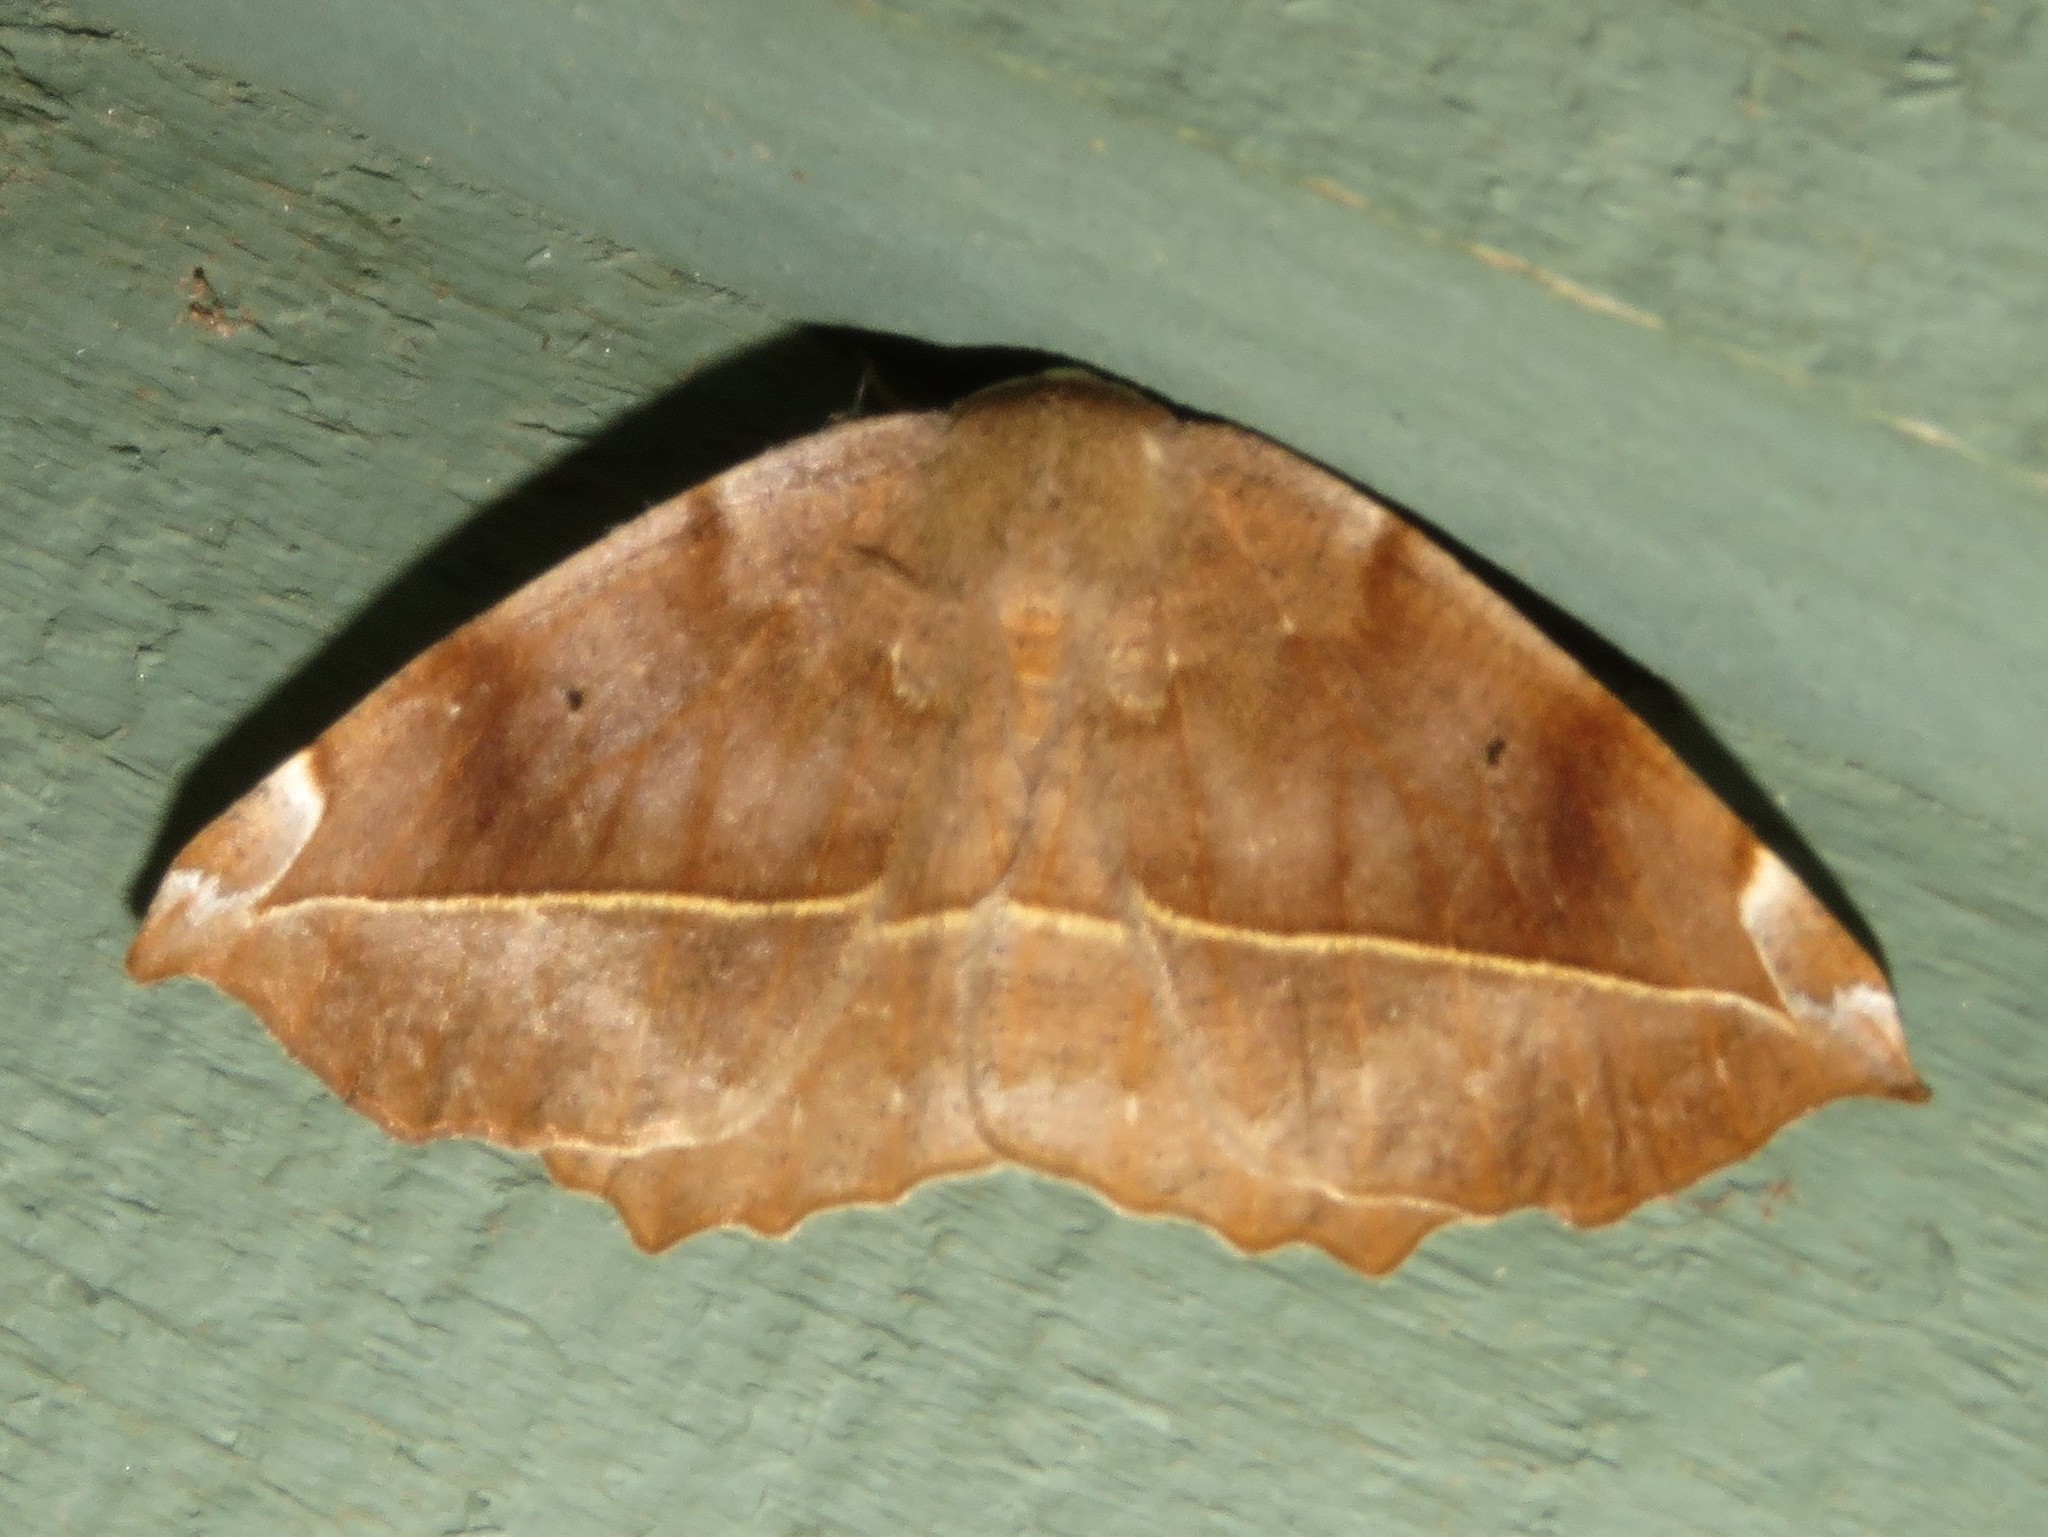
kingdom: Animalia
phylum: Arthropoda
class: Insecta
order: Lepidoptera
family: Geometridae
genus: Eutrapela
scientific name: Eutrapela clemataria
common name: Curved-toothed geometer
